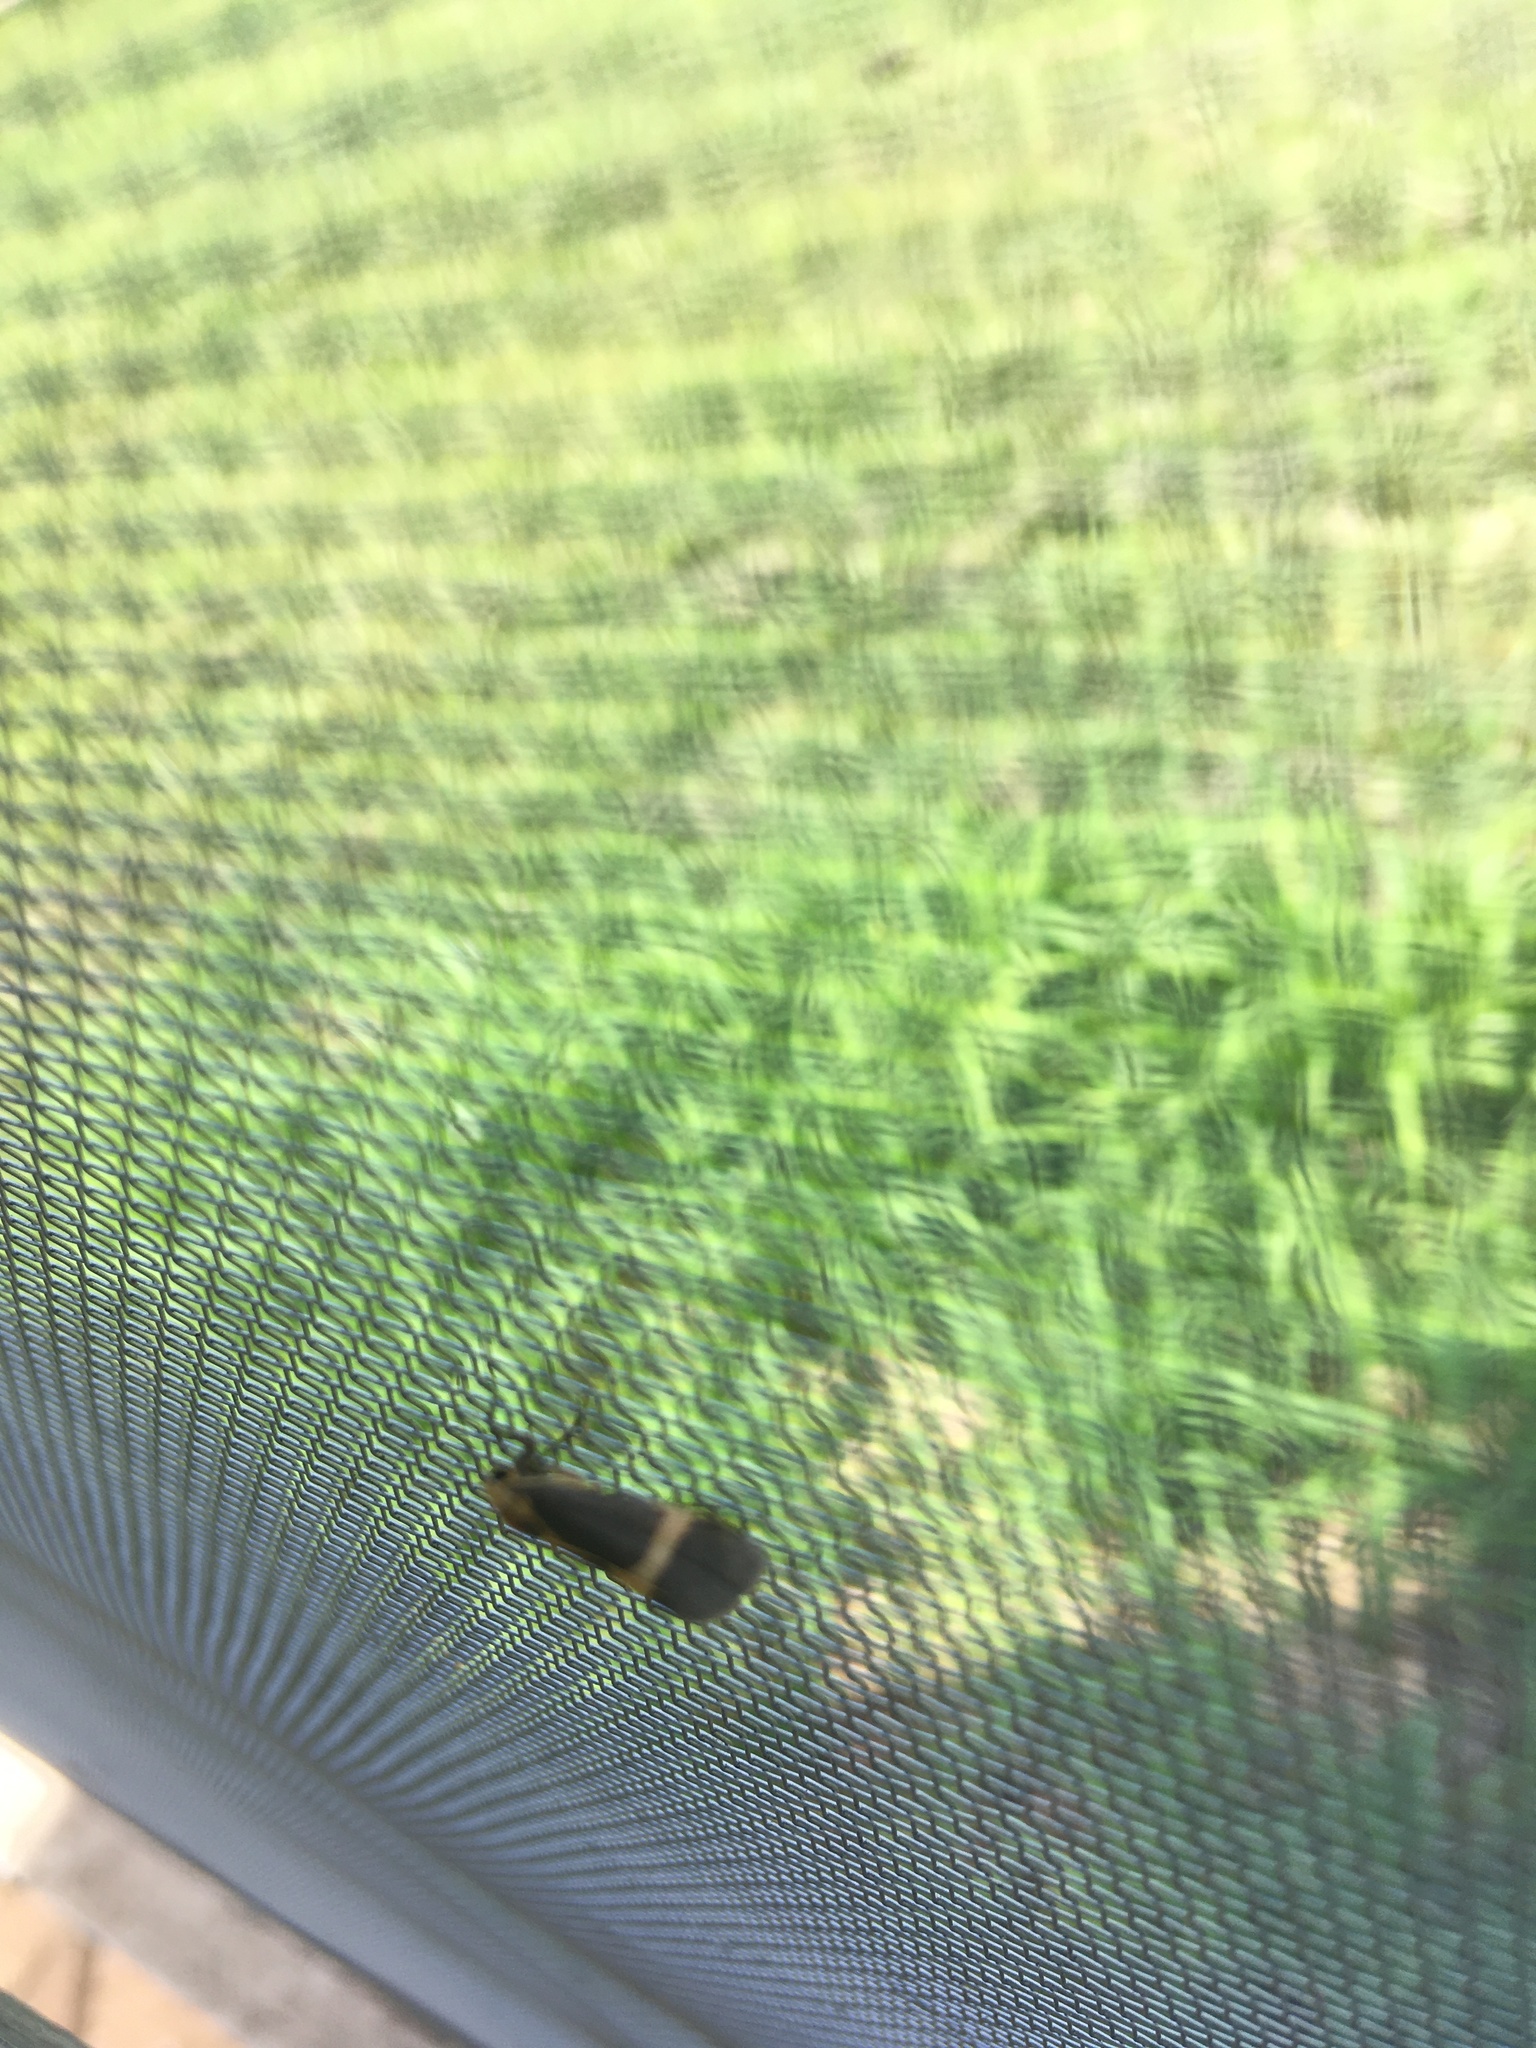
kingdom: Animalia
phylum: Arthropoda
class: Insecta
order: Lepidoptera
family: Erebidae
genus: Cisthene
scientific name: Cisthene tenuifascia
